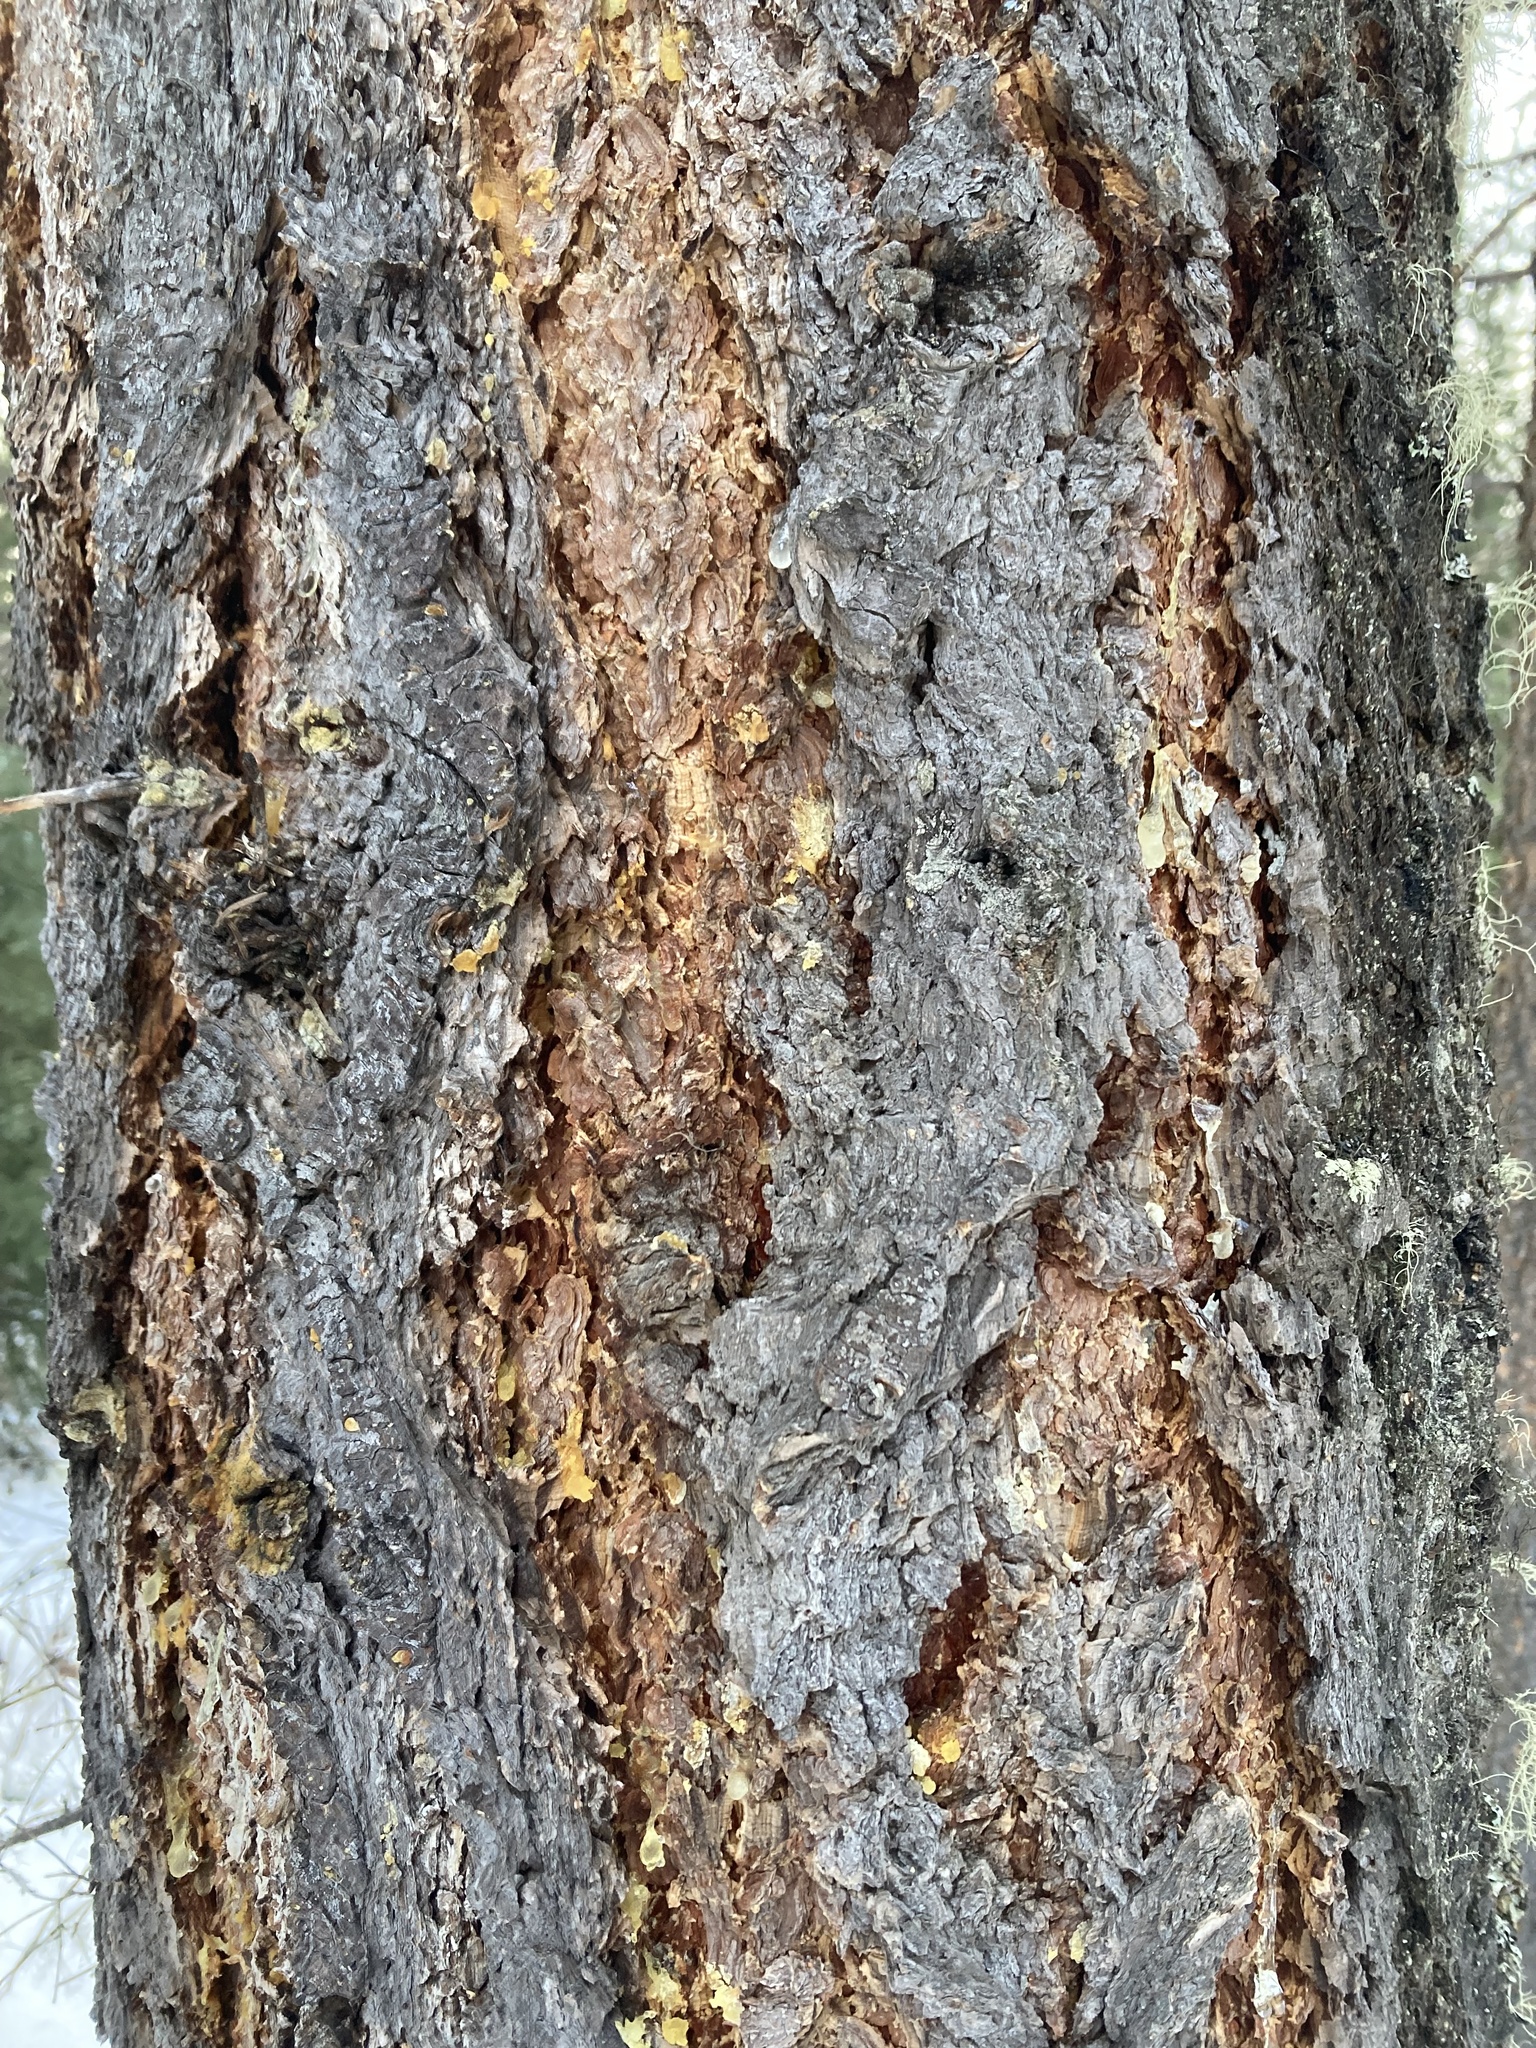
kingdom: Plantae
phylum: Tracheophyta
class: Pinopsida
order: Pinales
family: Pinaceae
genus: Pseudotsuga
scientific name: Pseudotsuga menziesii
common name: Douglas fir
